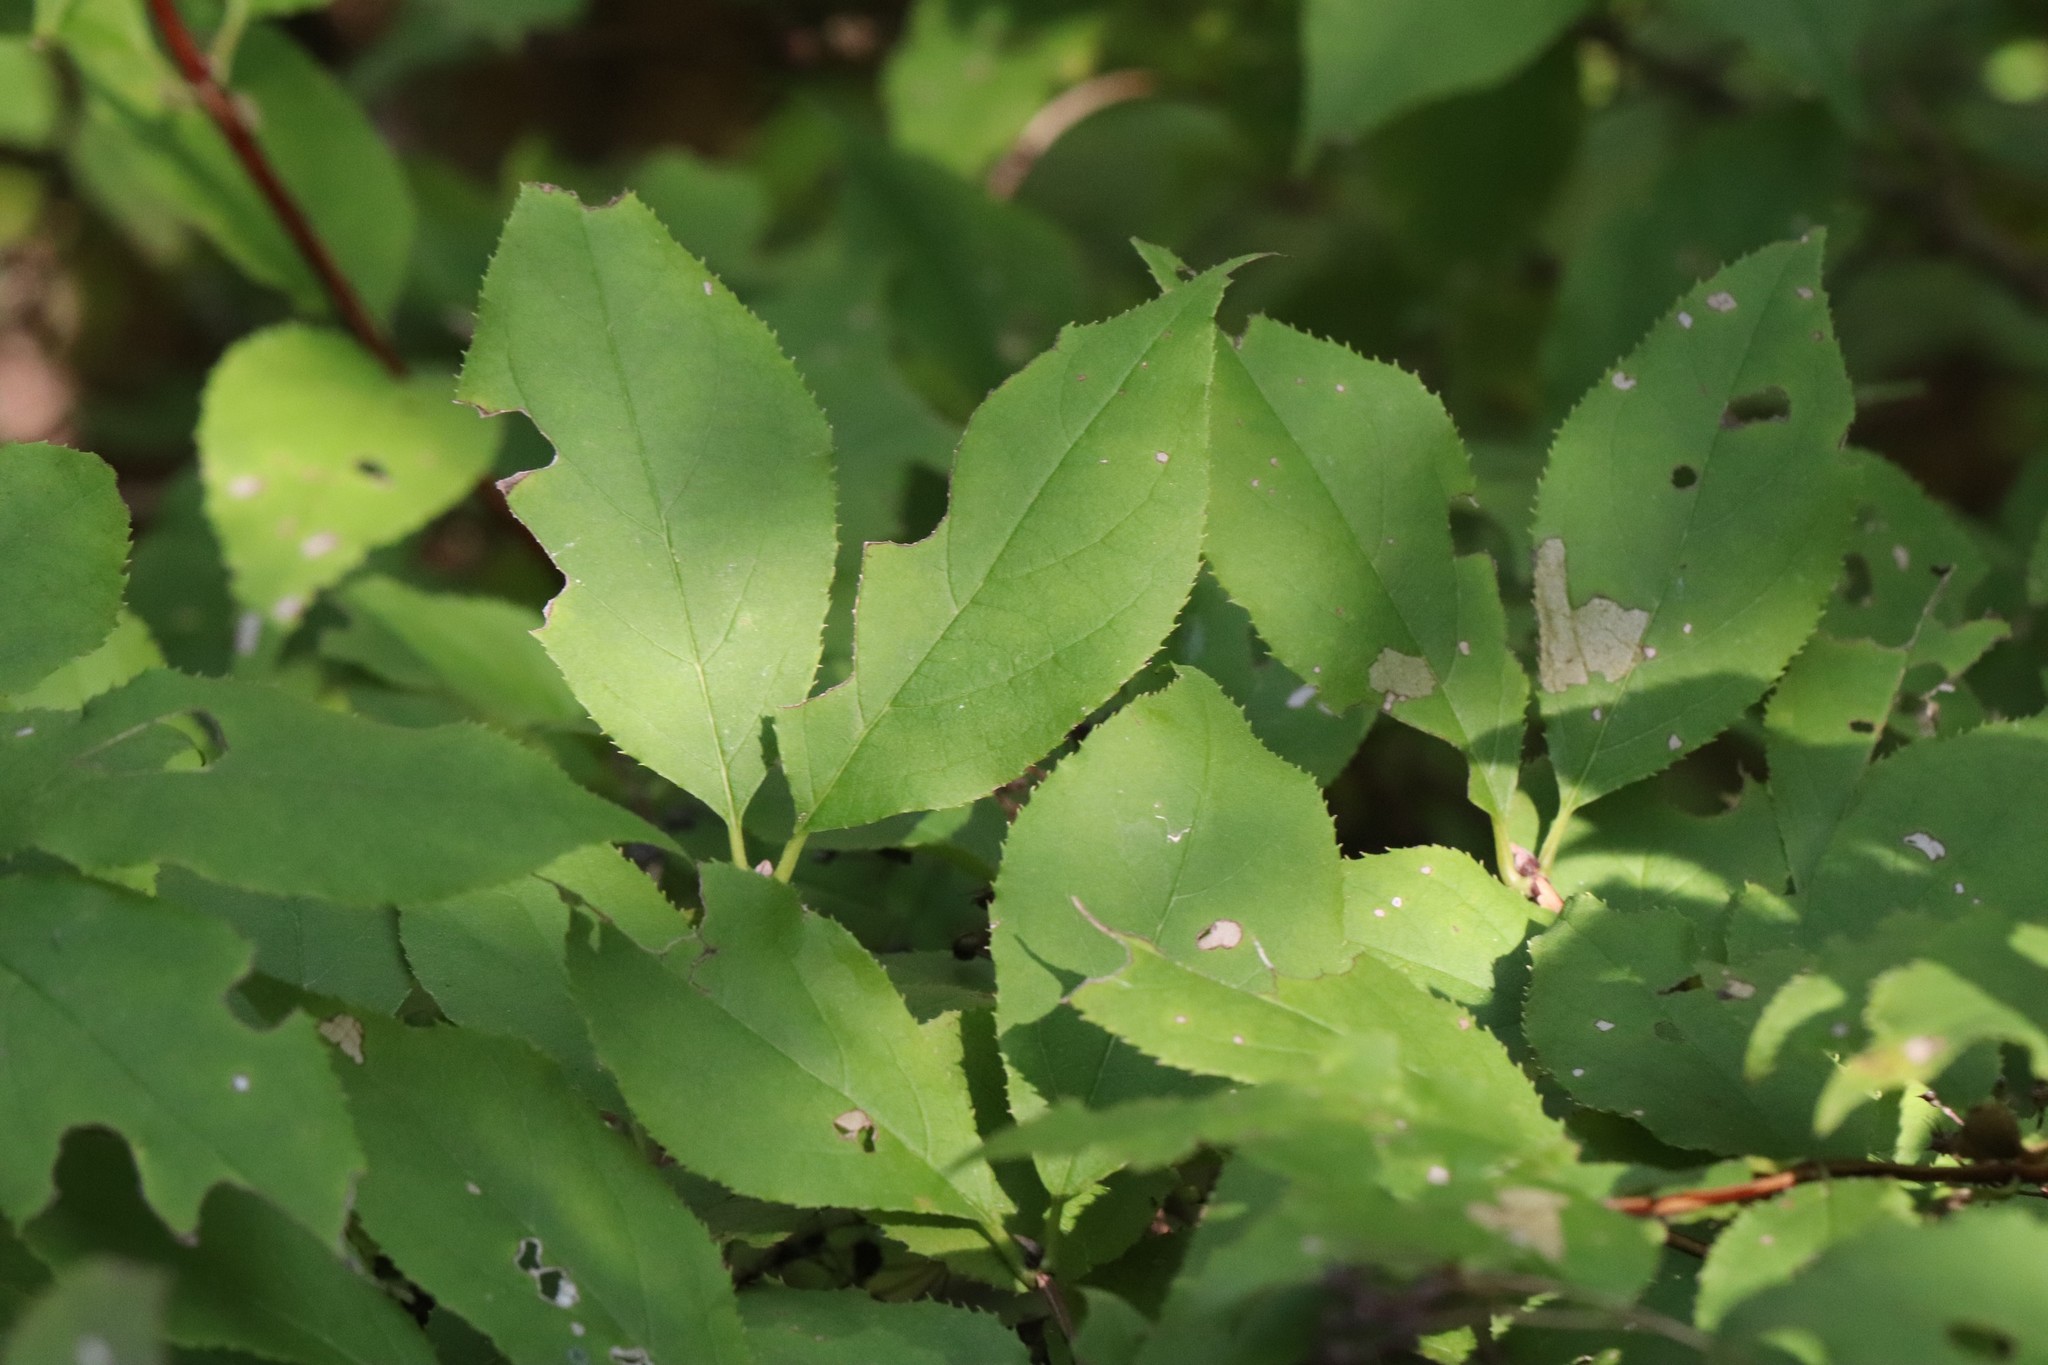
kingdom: Plantae
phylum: Tracheophyta
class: Magnoliopsida
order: Cornales
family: Hydrangeaceae
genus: Deutzia
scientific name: Deutzia parviflora
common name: Mongolian pride-of-rochester
